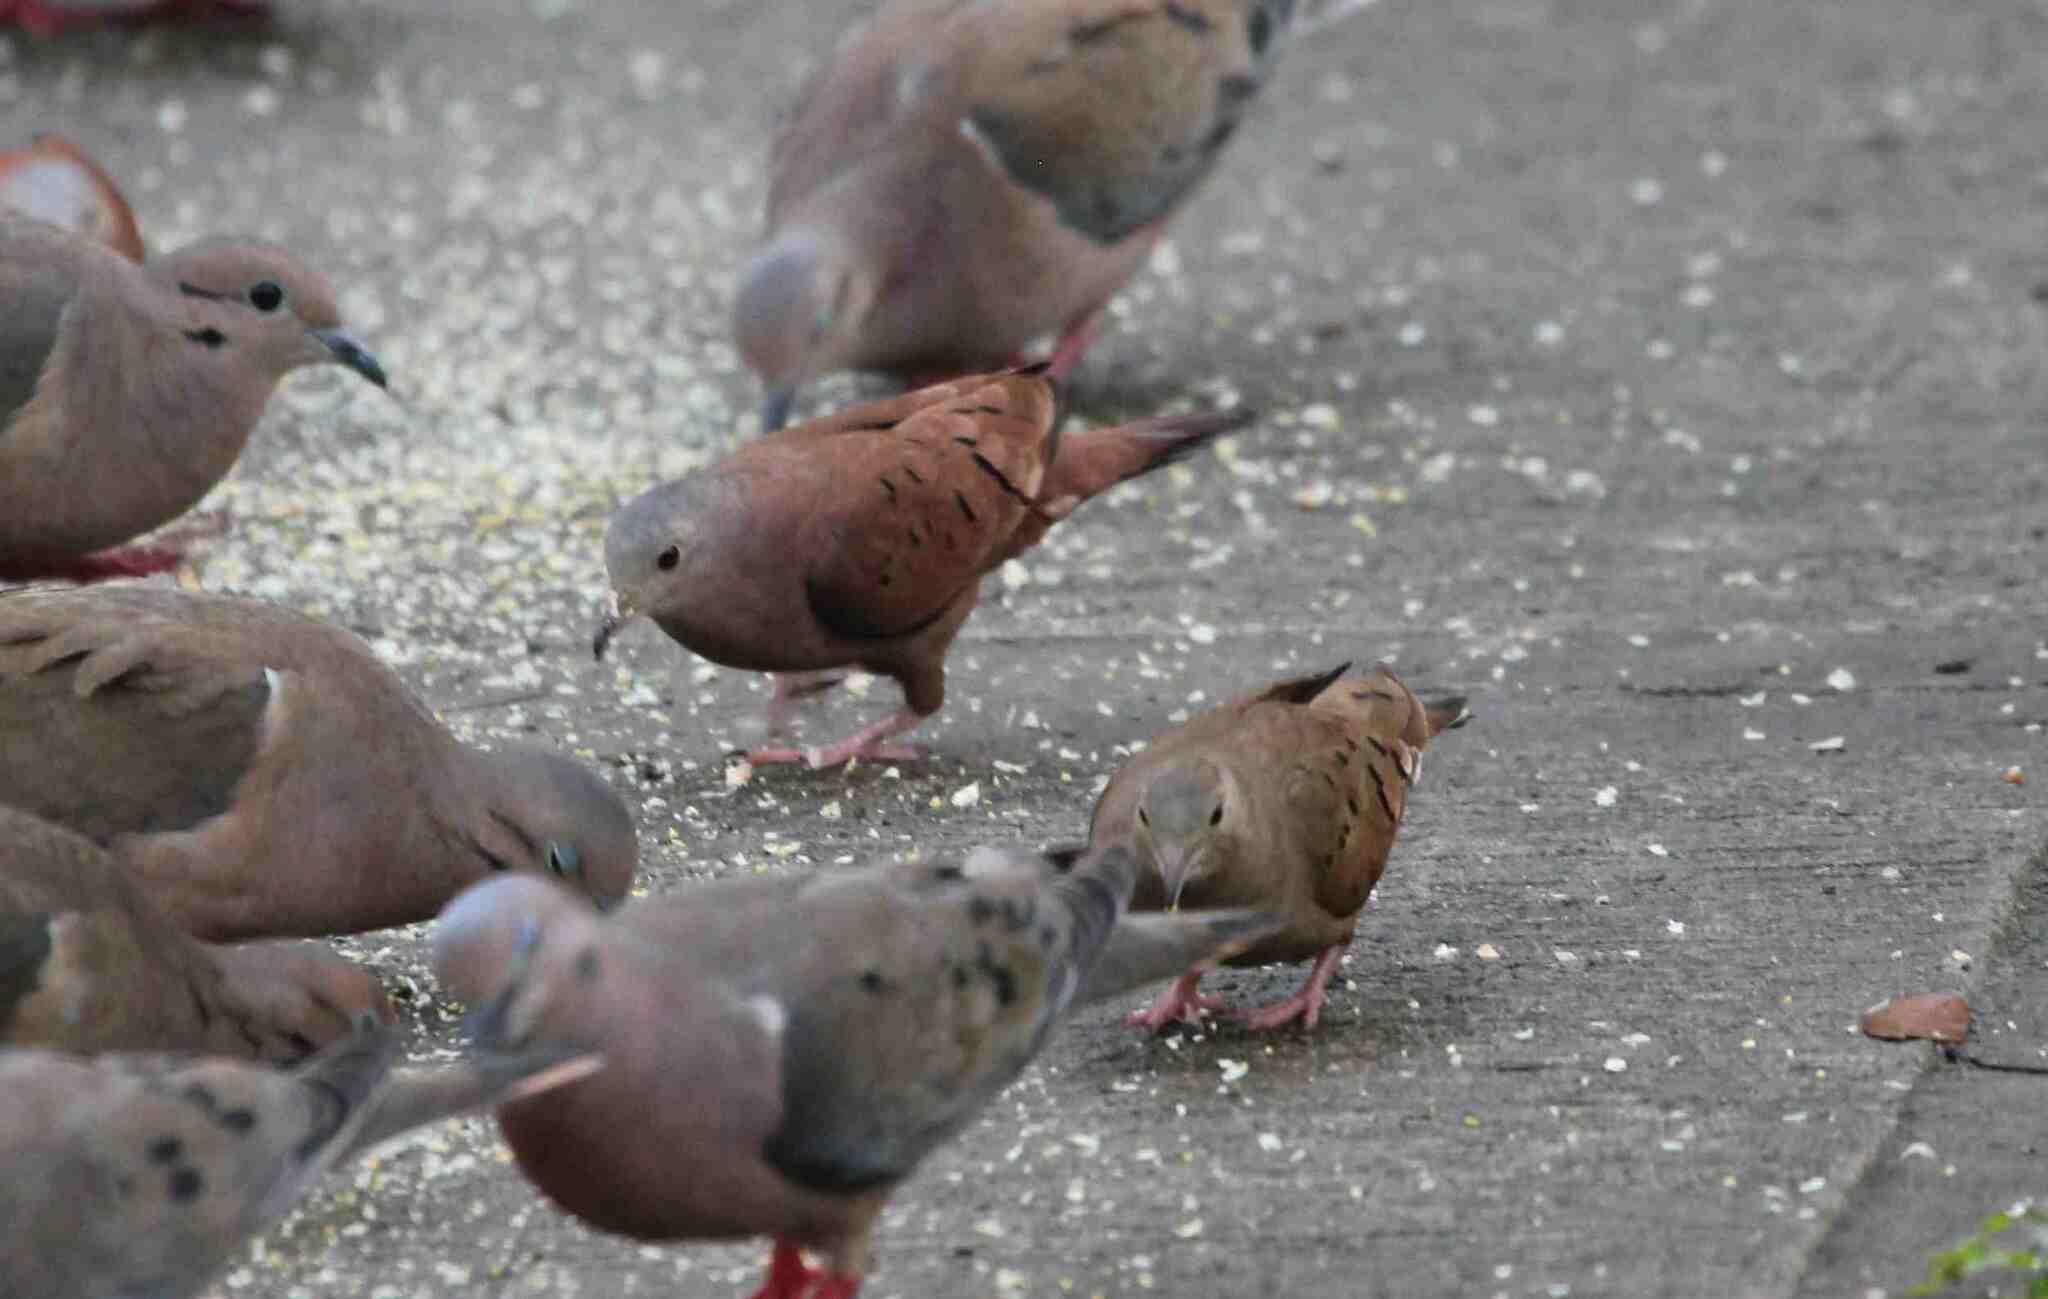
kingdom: Animalia
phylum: Chordata
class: Aves
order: Columbiformes
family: Columbidae
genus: Columbina
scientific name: Columbina talpacoti
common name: Ruddy ground dove
